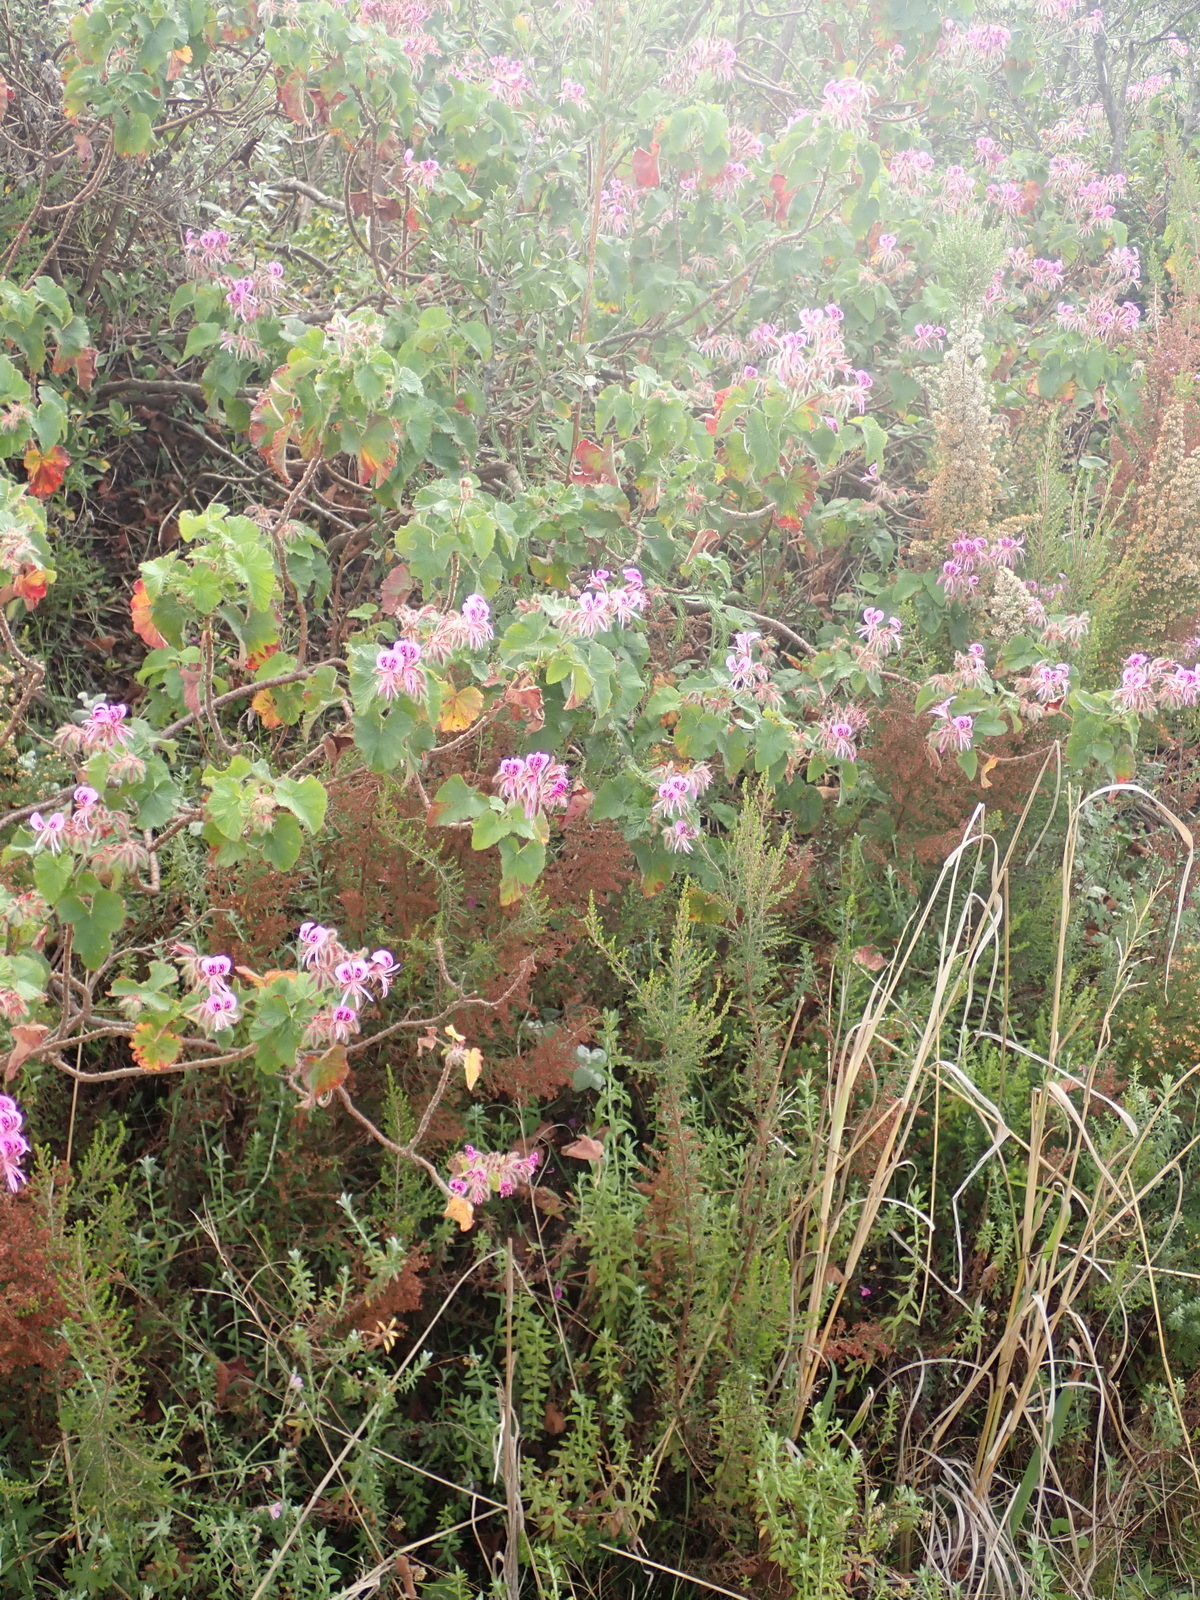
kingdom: Plantae
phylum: Tracheophyta
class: Magnoliopsida
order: Geraniales
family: Geraniaceae
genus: Pelargonium
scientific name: Pelargonium cordifolium
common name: Heart-leaf pelargonium
